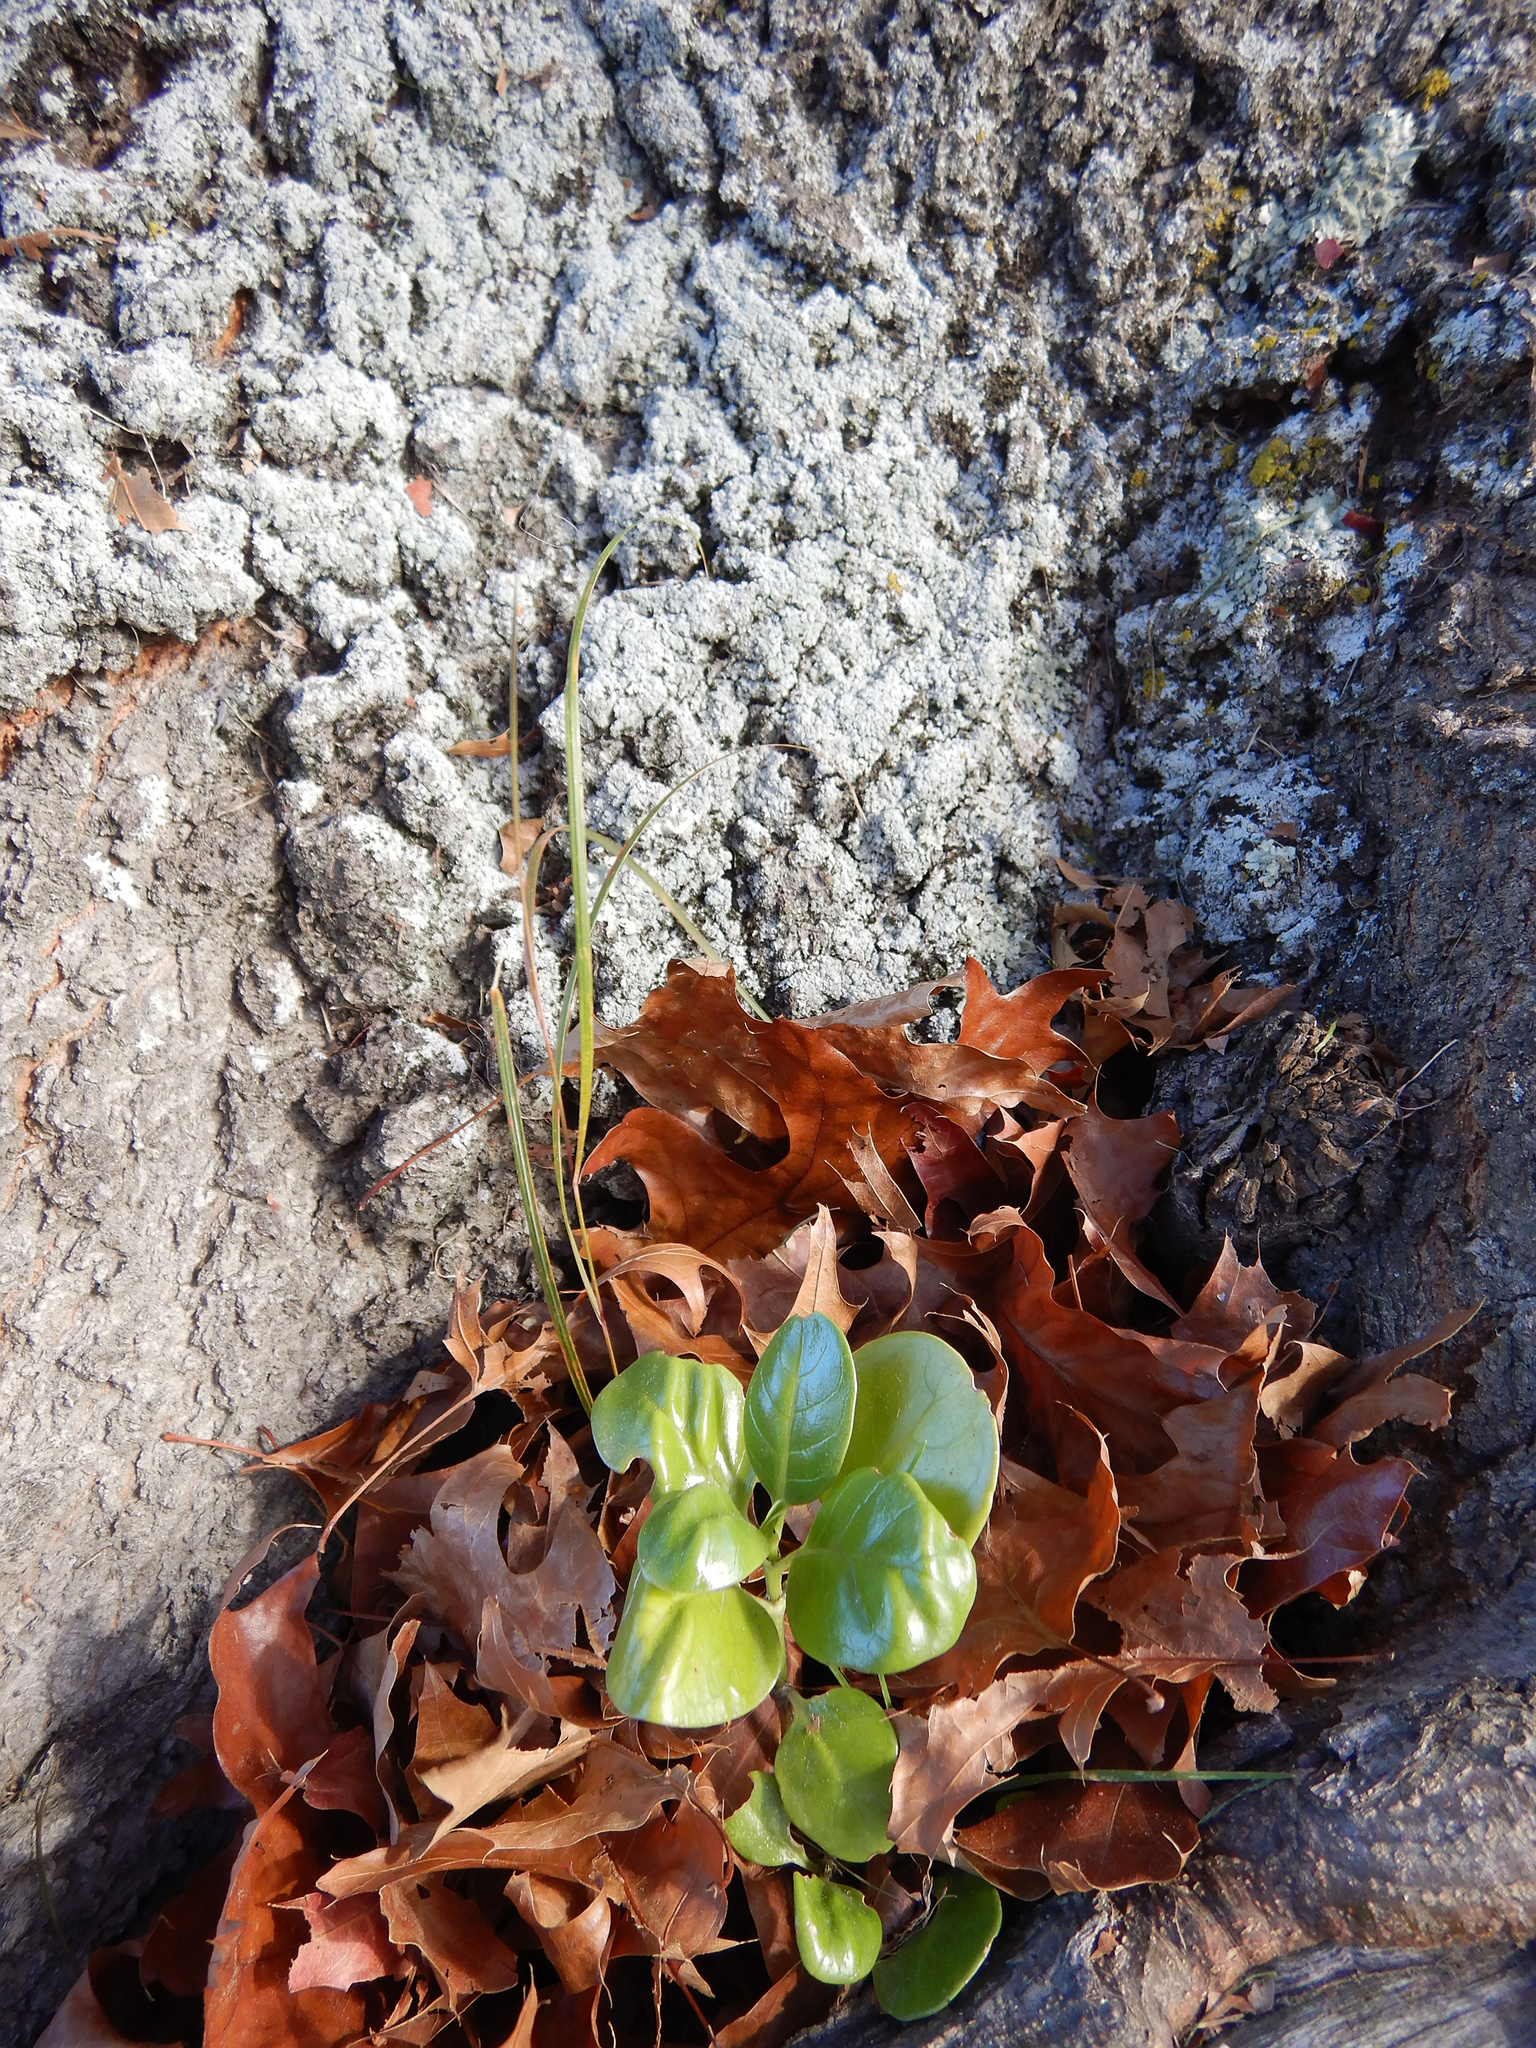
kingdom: Plantae
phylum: Tracheophyta
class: Liliopsida
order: Asparagales
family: Asparagaceae
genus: Cordyline
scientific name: Cordyline australis
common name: Cabbage-palm
